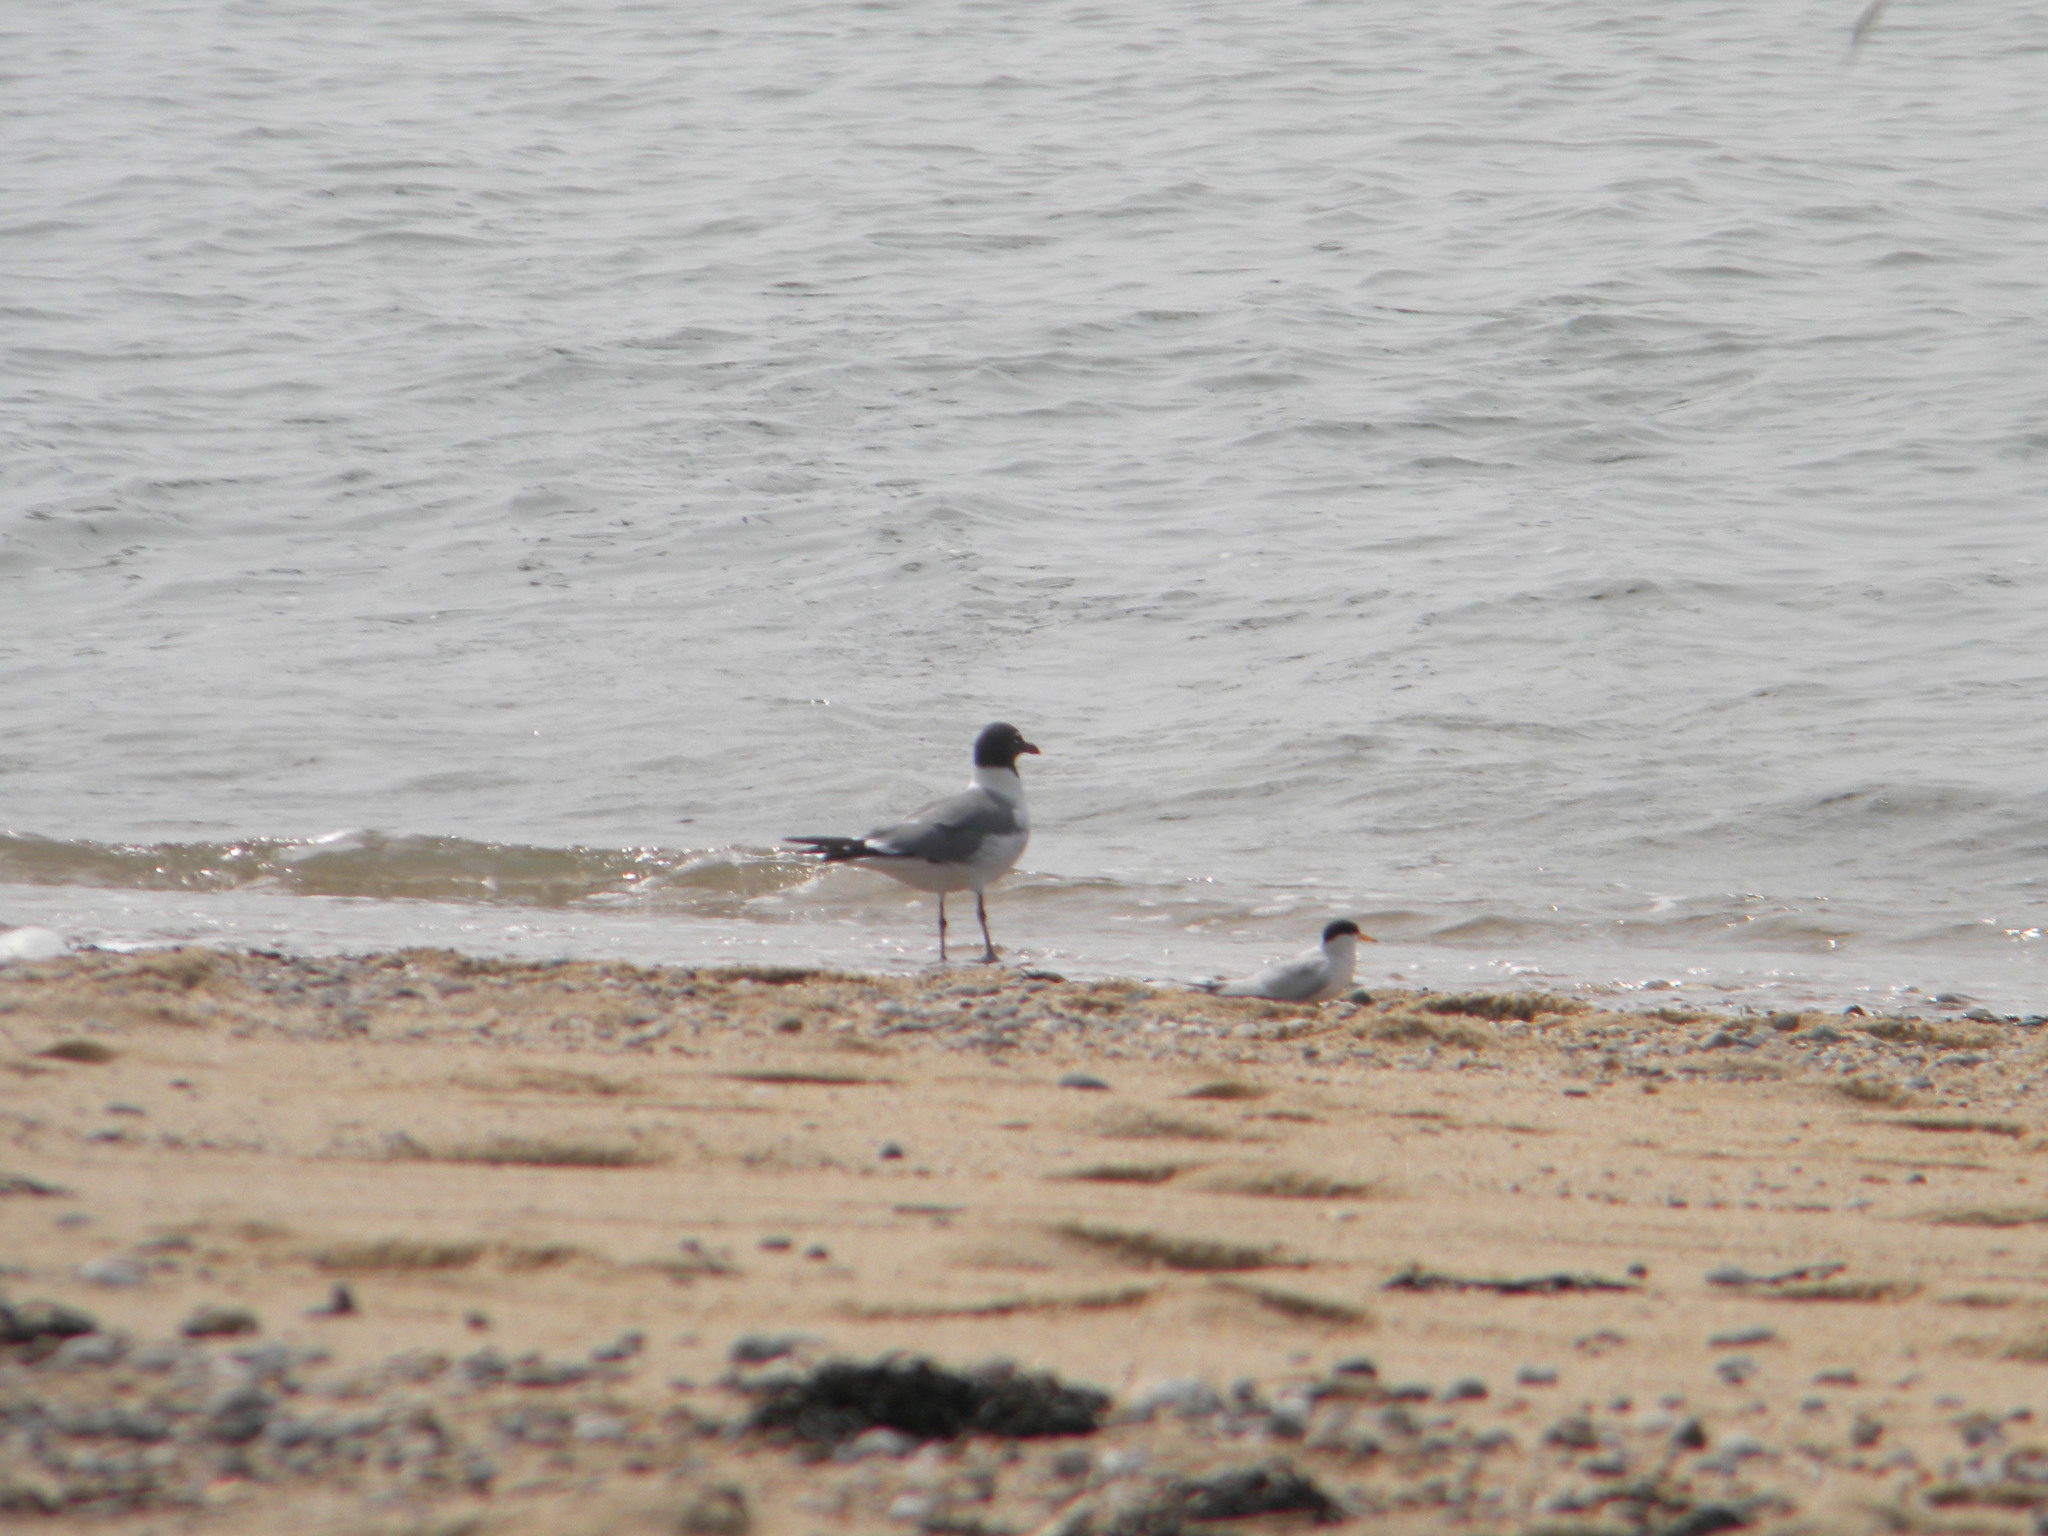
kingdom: Animalia
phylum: Chordata
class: Aves
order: Charadriiformes
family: Laridae
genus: Leucophaeus
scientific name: Leucophaeus atricilla
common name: Laughing gull
